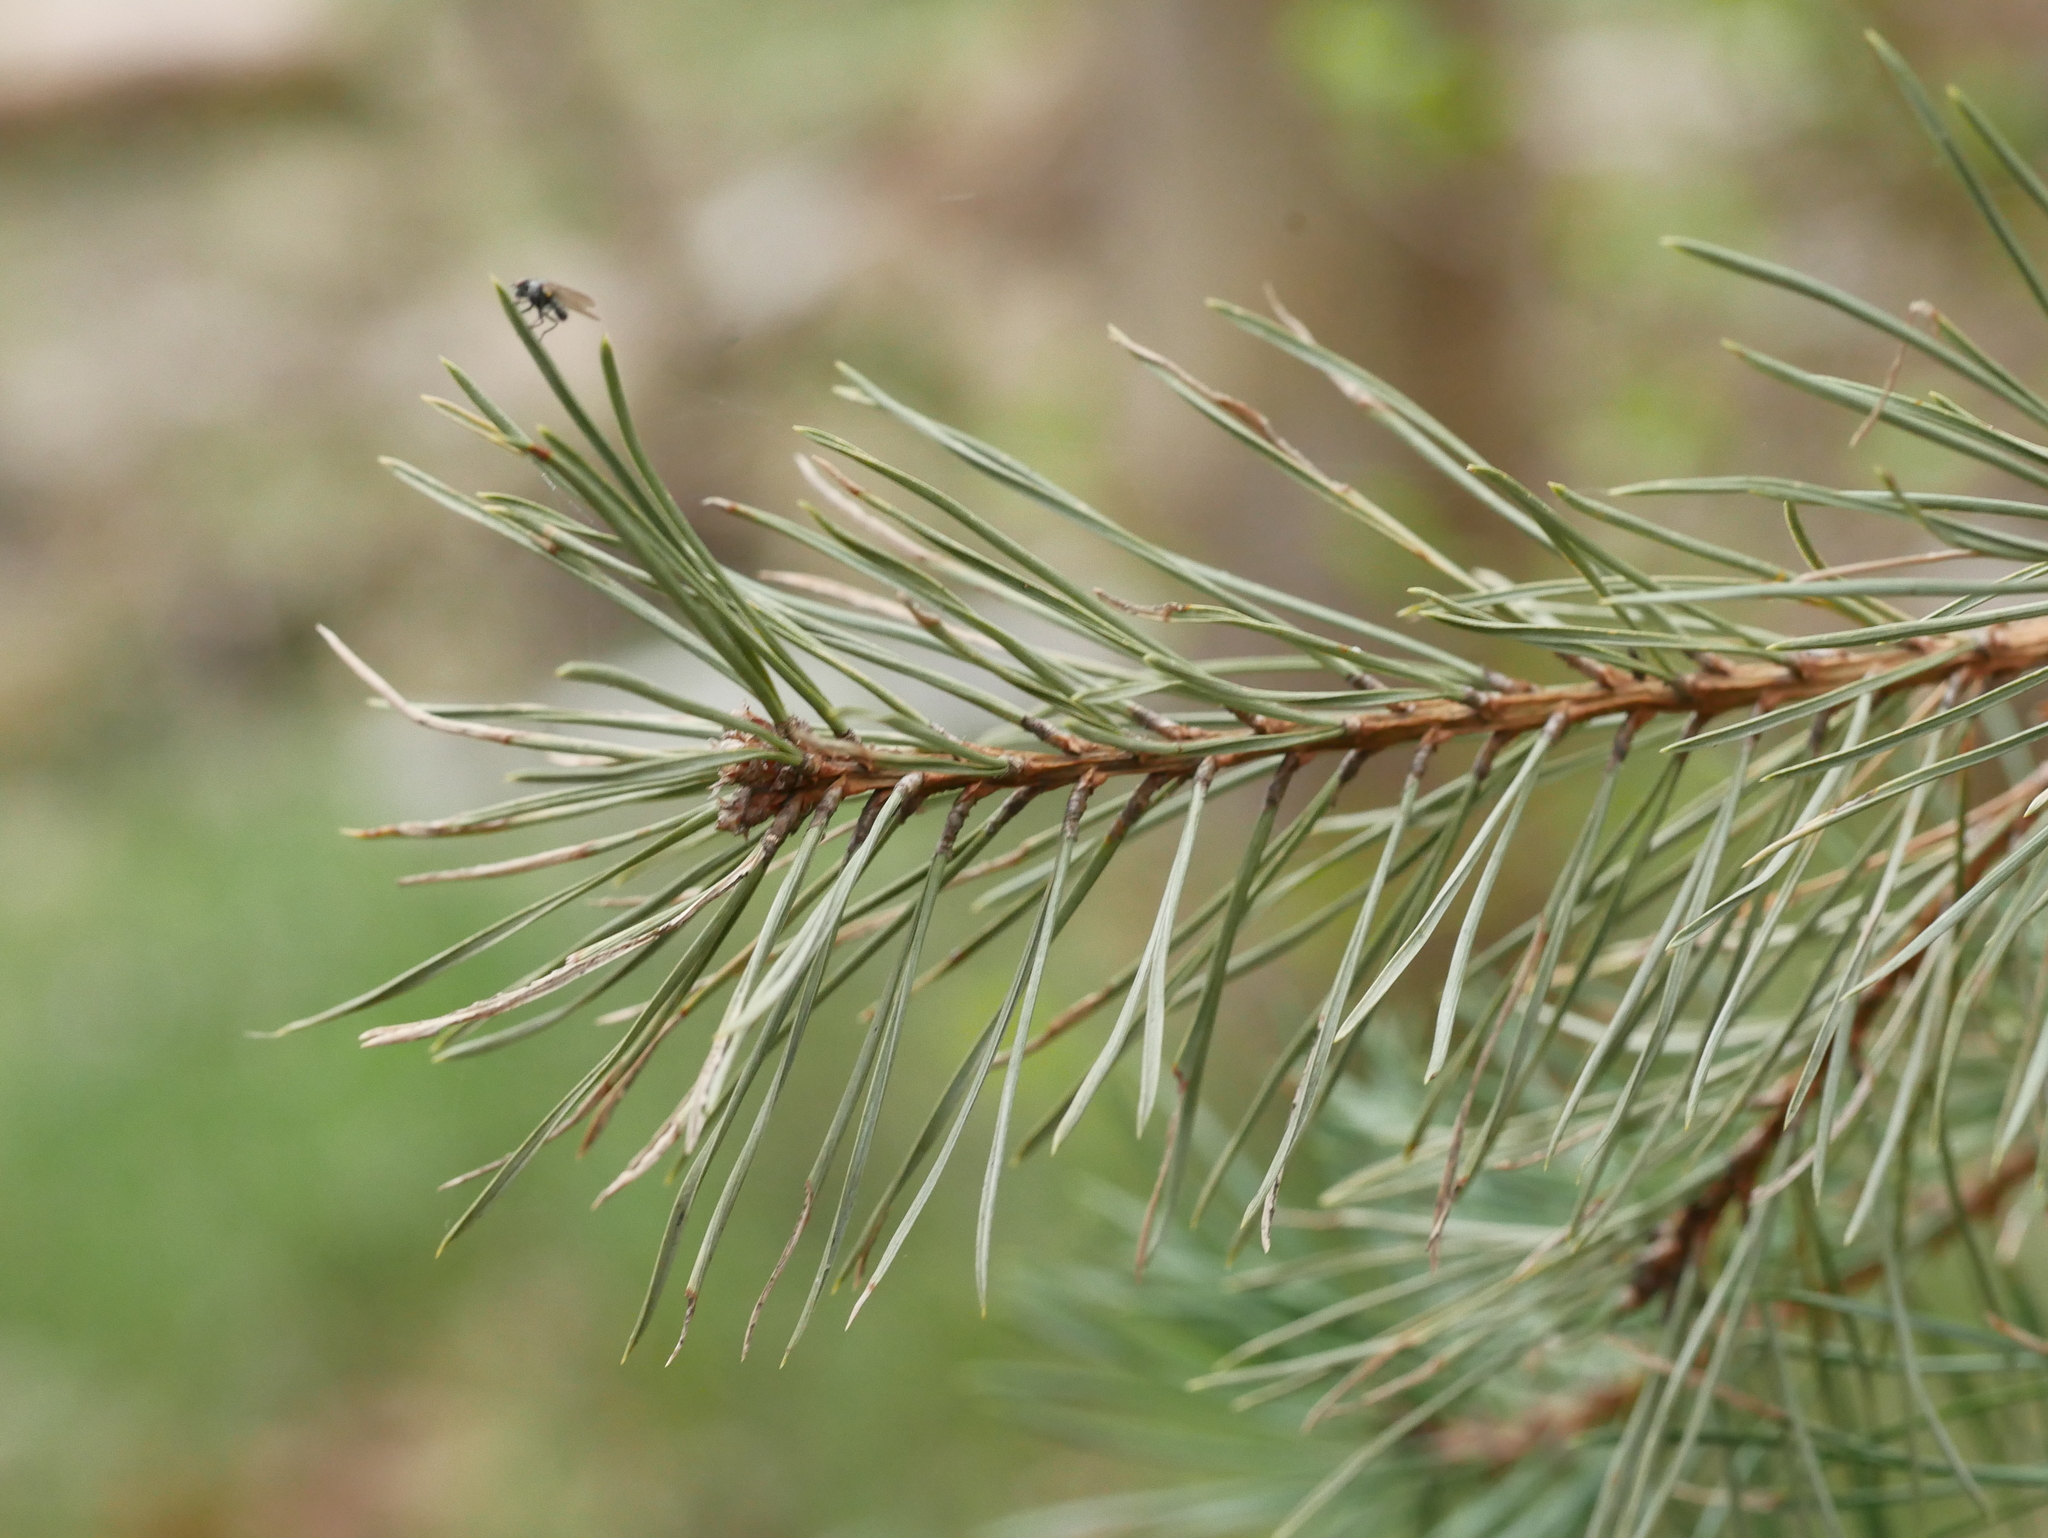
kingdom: Plantae
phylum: Tracheophyta
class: Pinopsida
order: Pinales
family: Pinaceae
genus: Pinus
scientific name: Pinus sylvestris
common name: Scots pine
